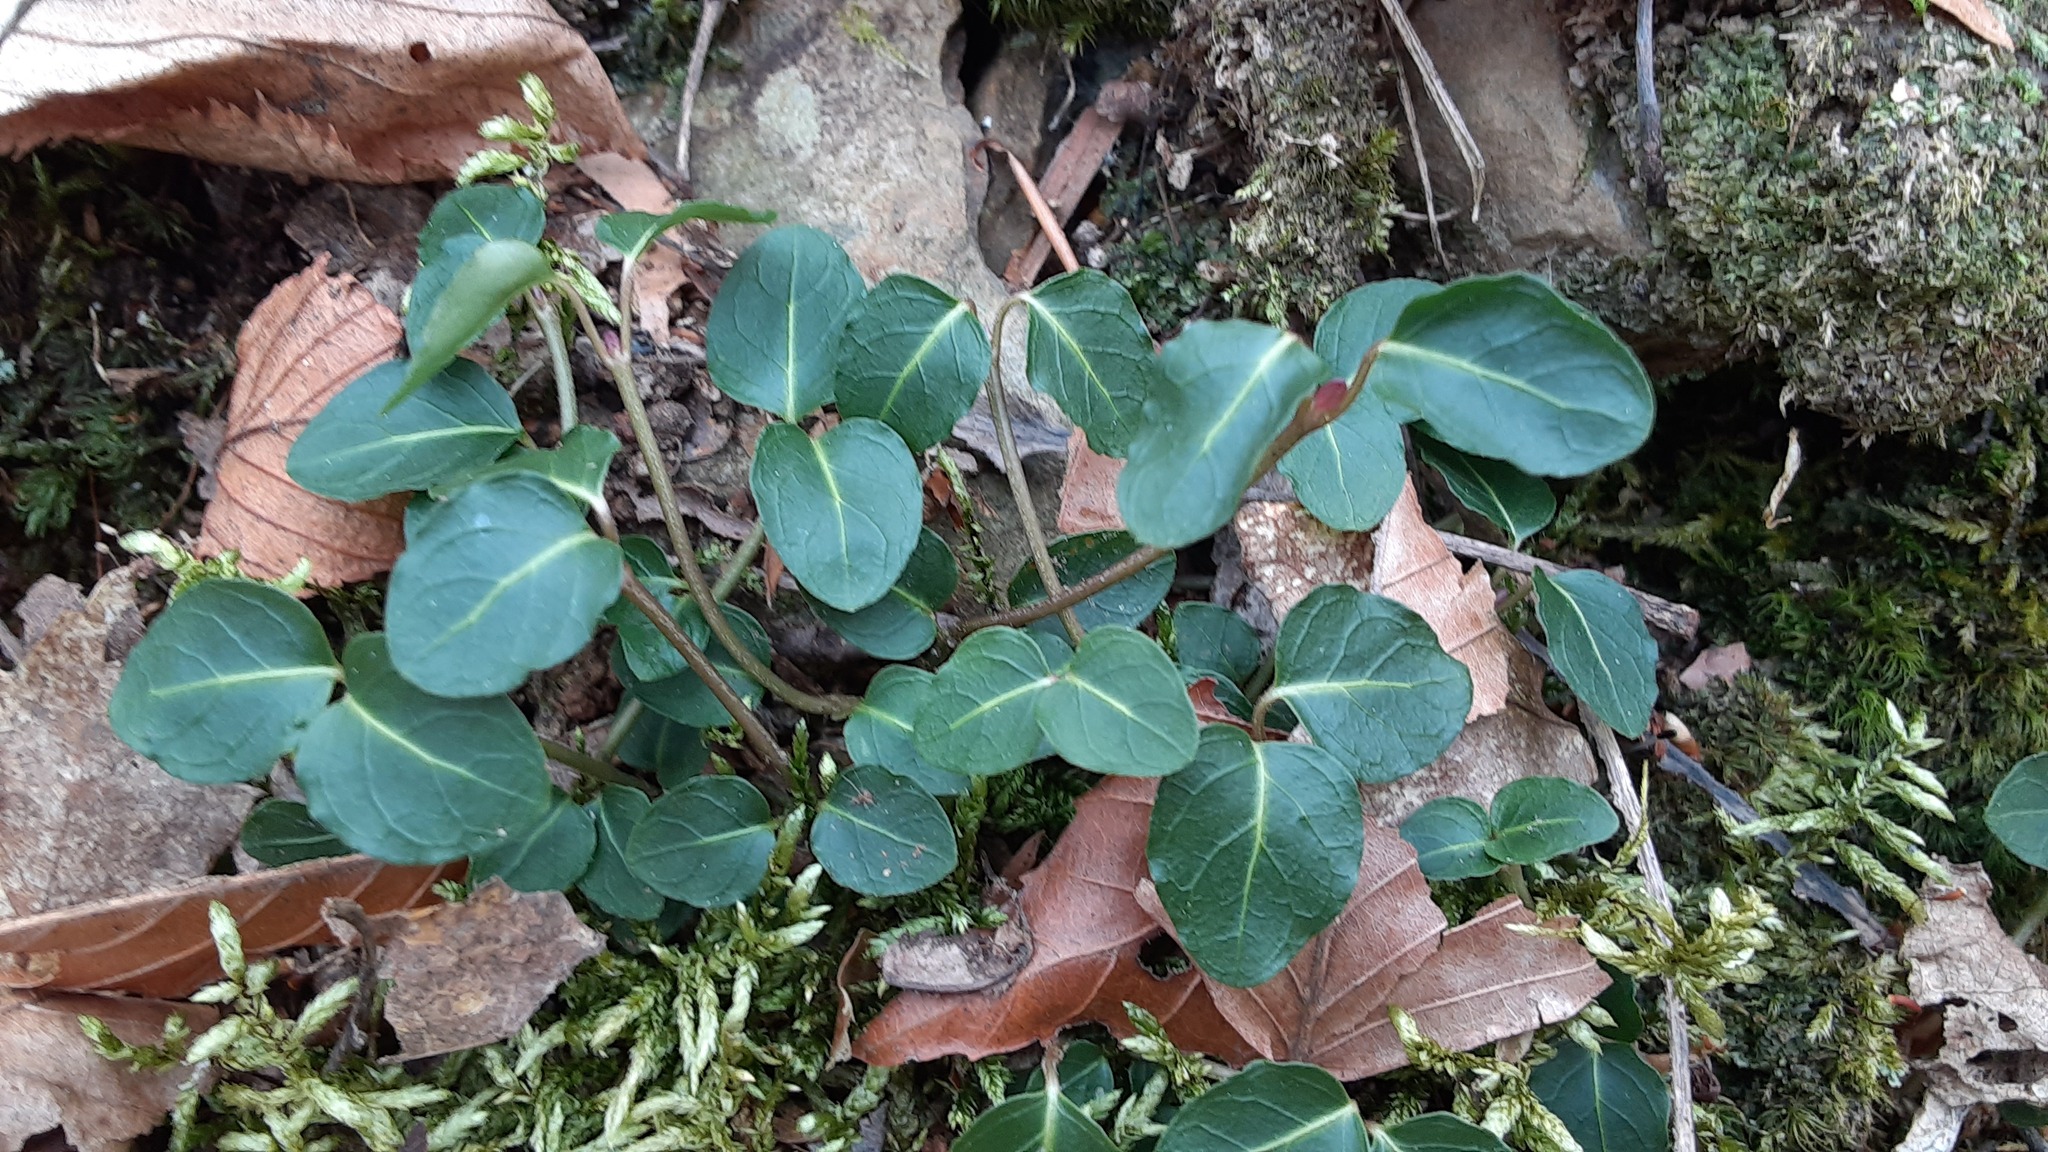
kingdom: Plantae
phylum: Tracheophyta
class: Magnoliopsida
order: Gentianales
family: Rubiaceae
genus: Mitchella
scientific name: Mitchella repens
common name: Partridge-berry
